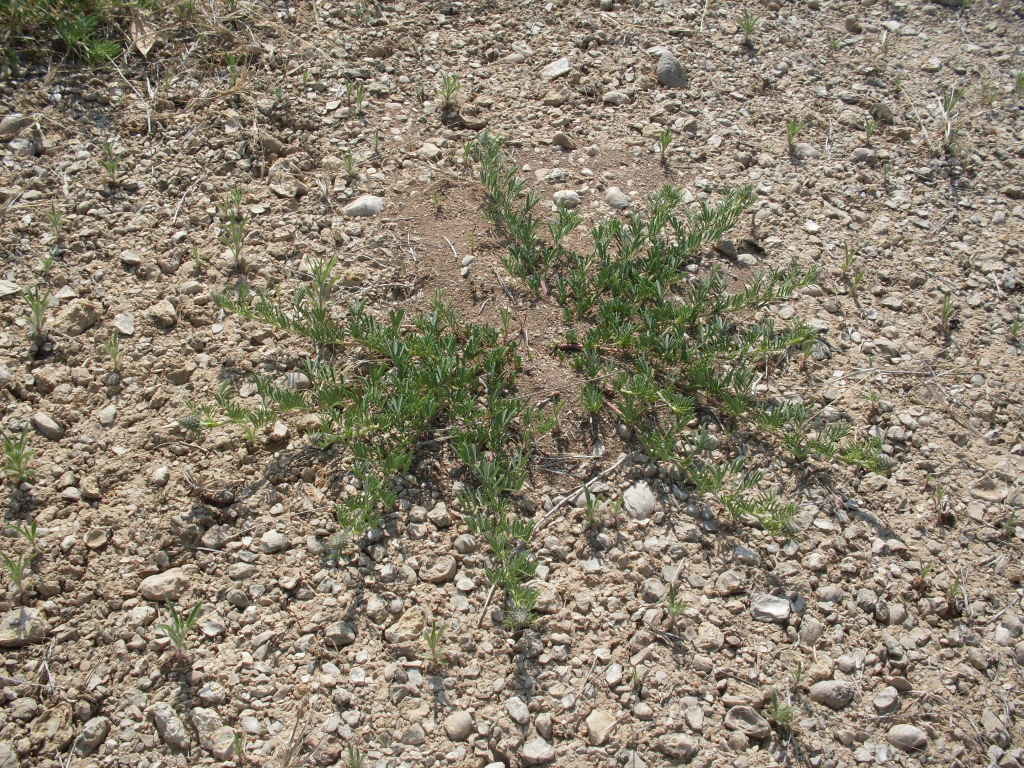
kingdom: Plantae
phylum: Tracheophyta
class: Magnoliopsida
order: Fabales
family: Fabaceae
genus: Dalea
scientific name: Dalea reverchonii
